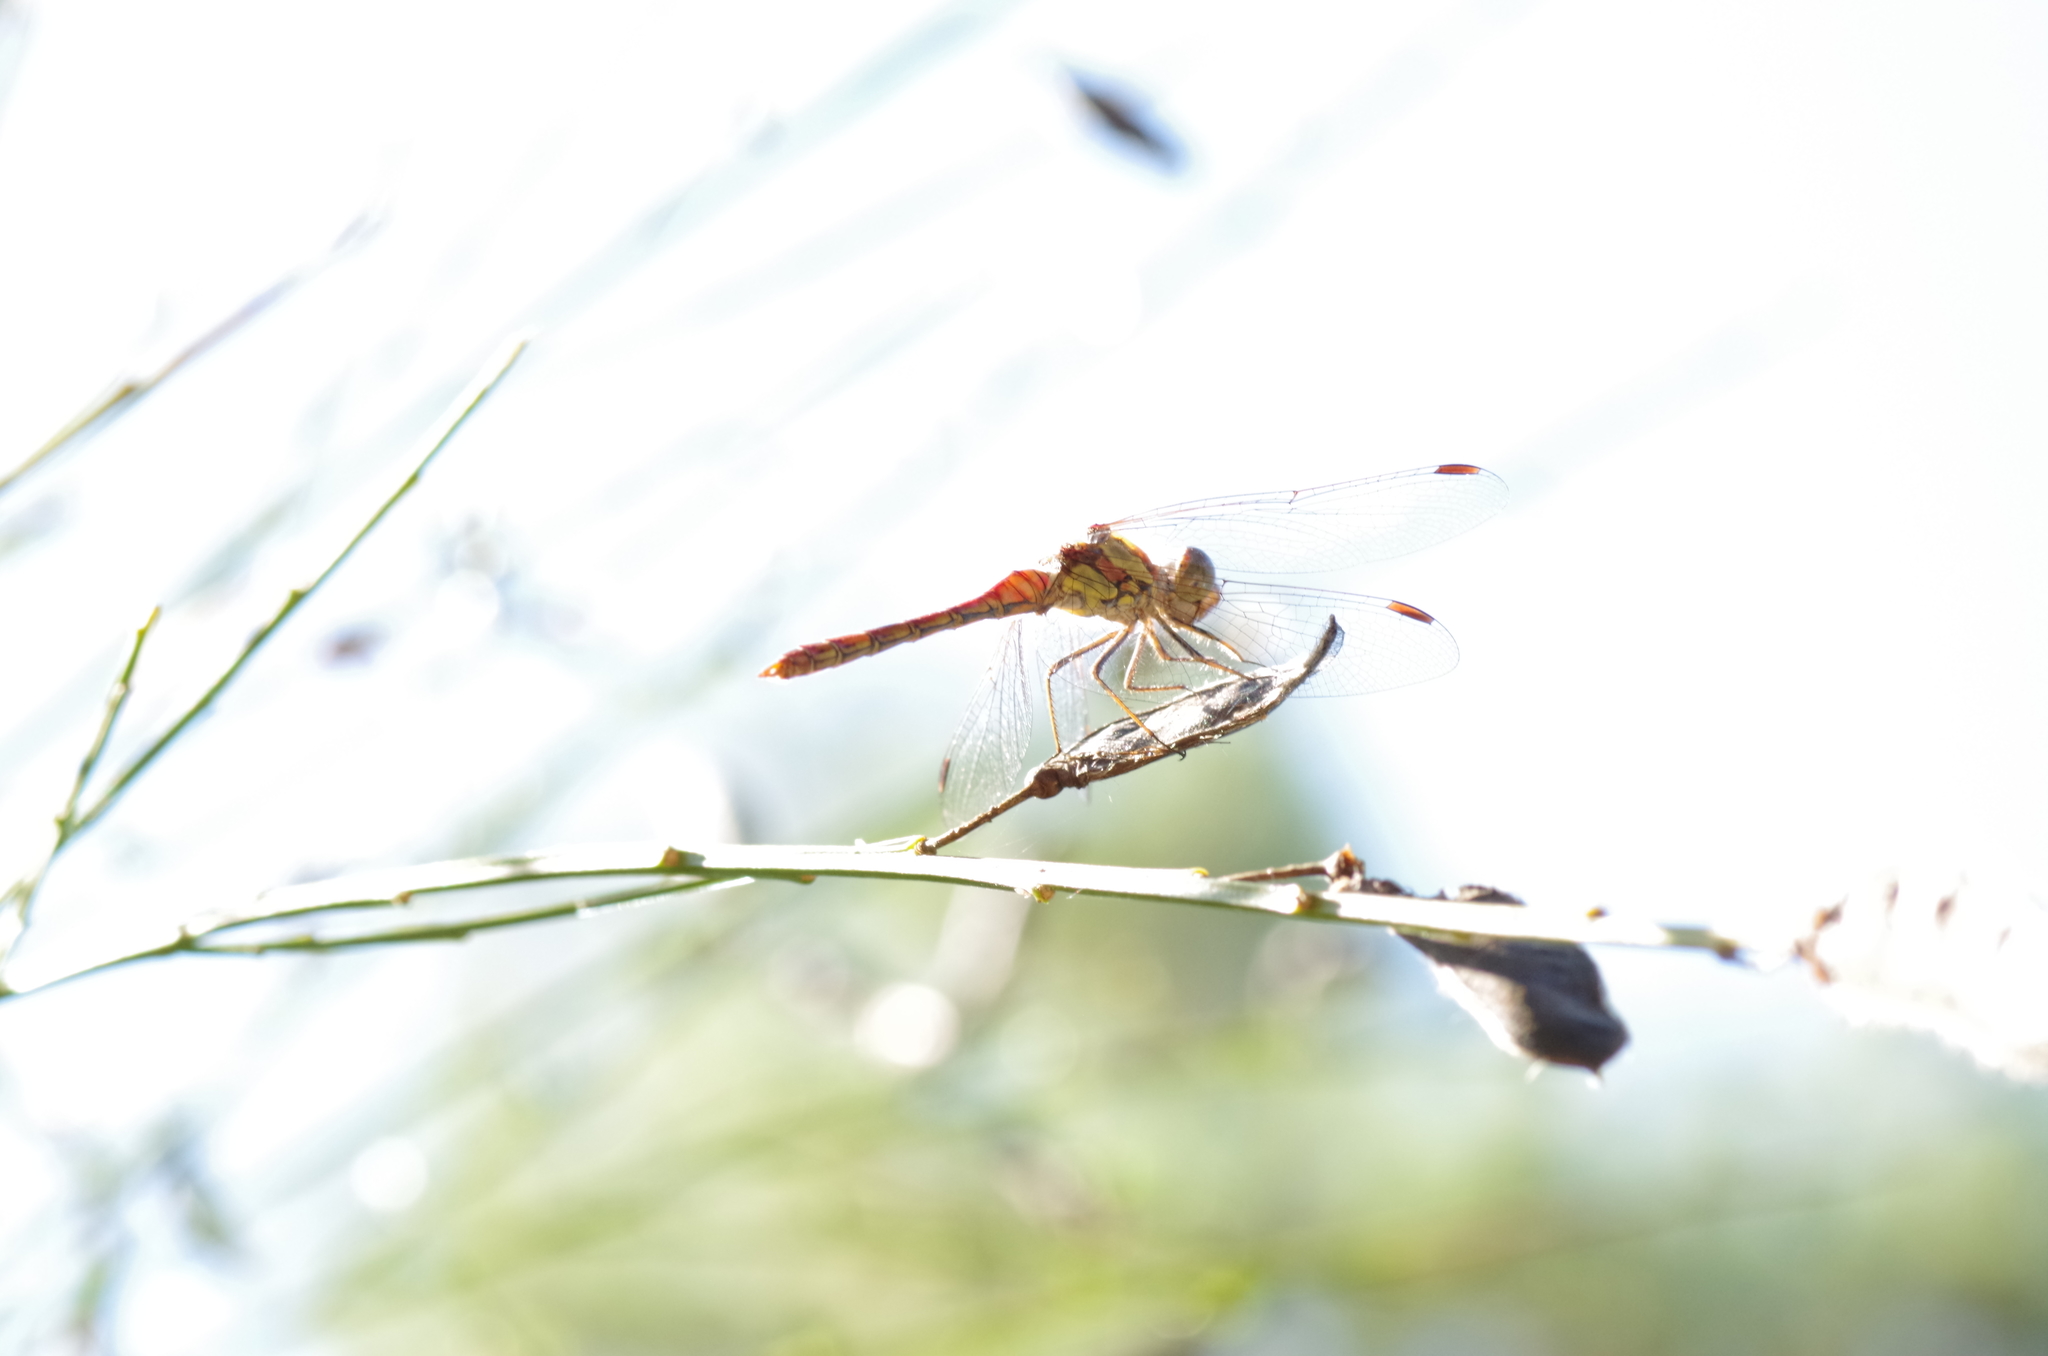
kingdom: Animalia
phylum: Arthropoda
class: Insecta
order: Odonata
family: Libellulidae
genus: Sympetrum
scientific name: Sympetrum striolatum
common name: Common darter
